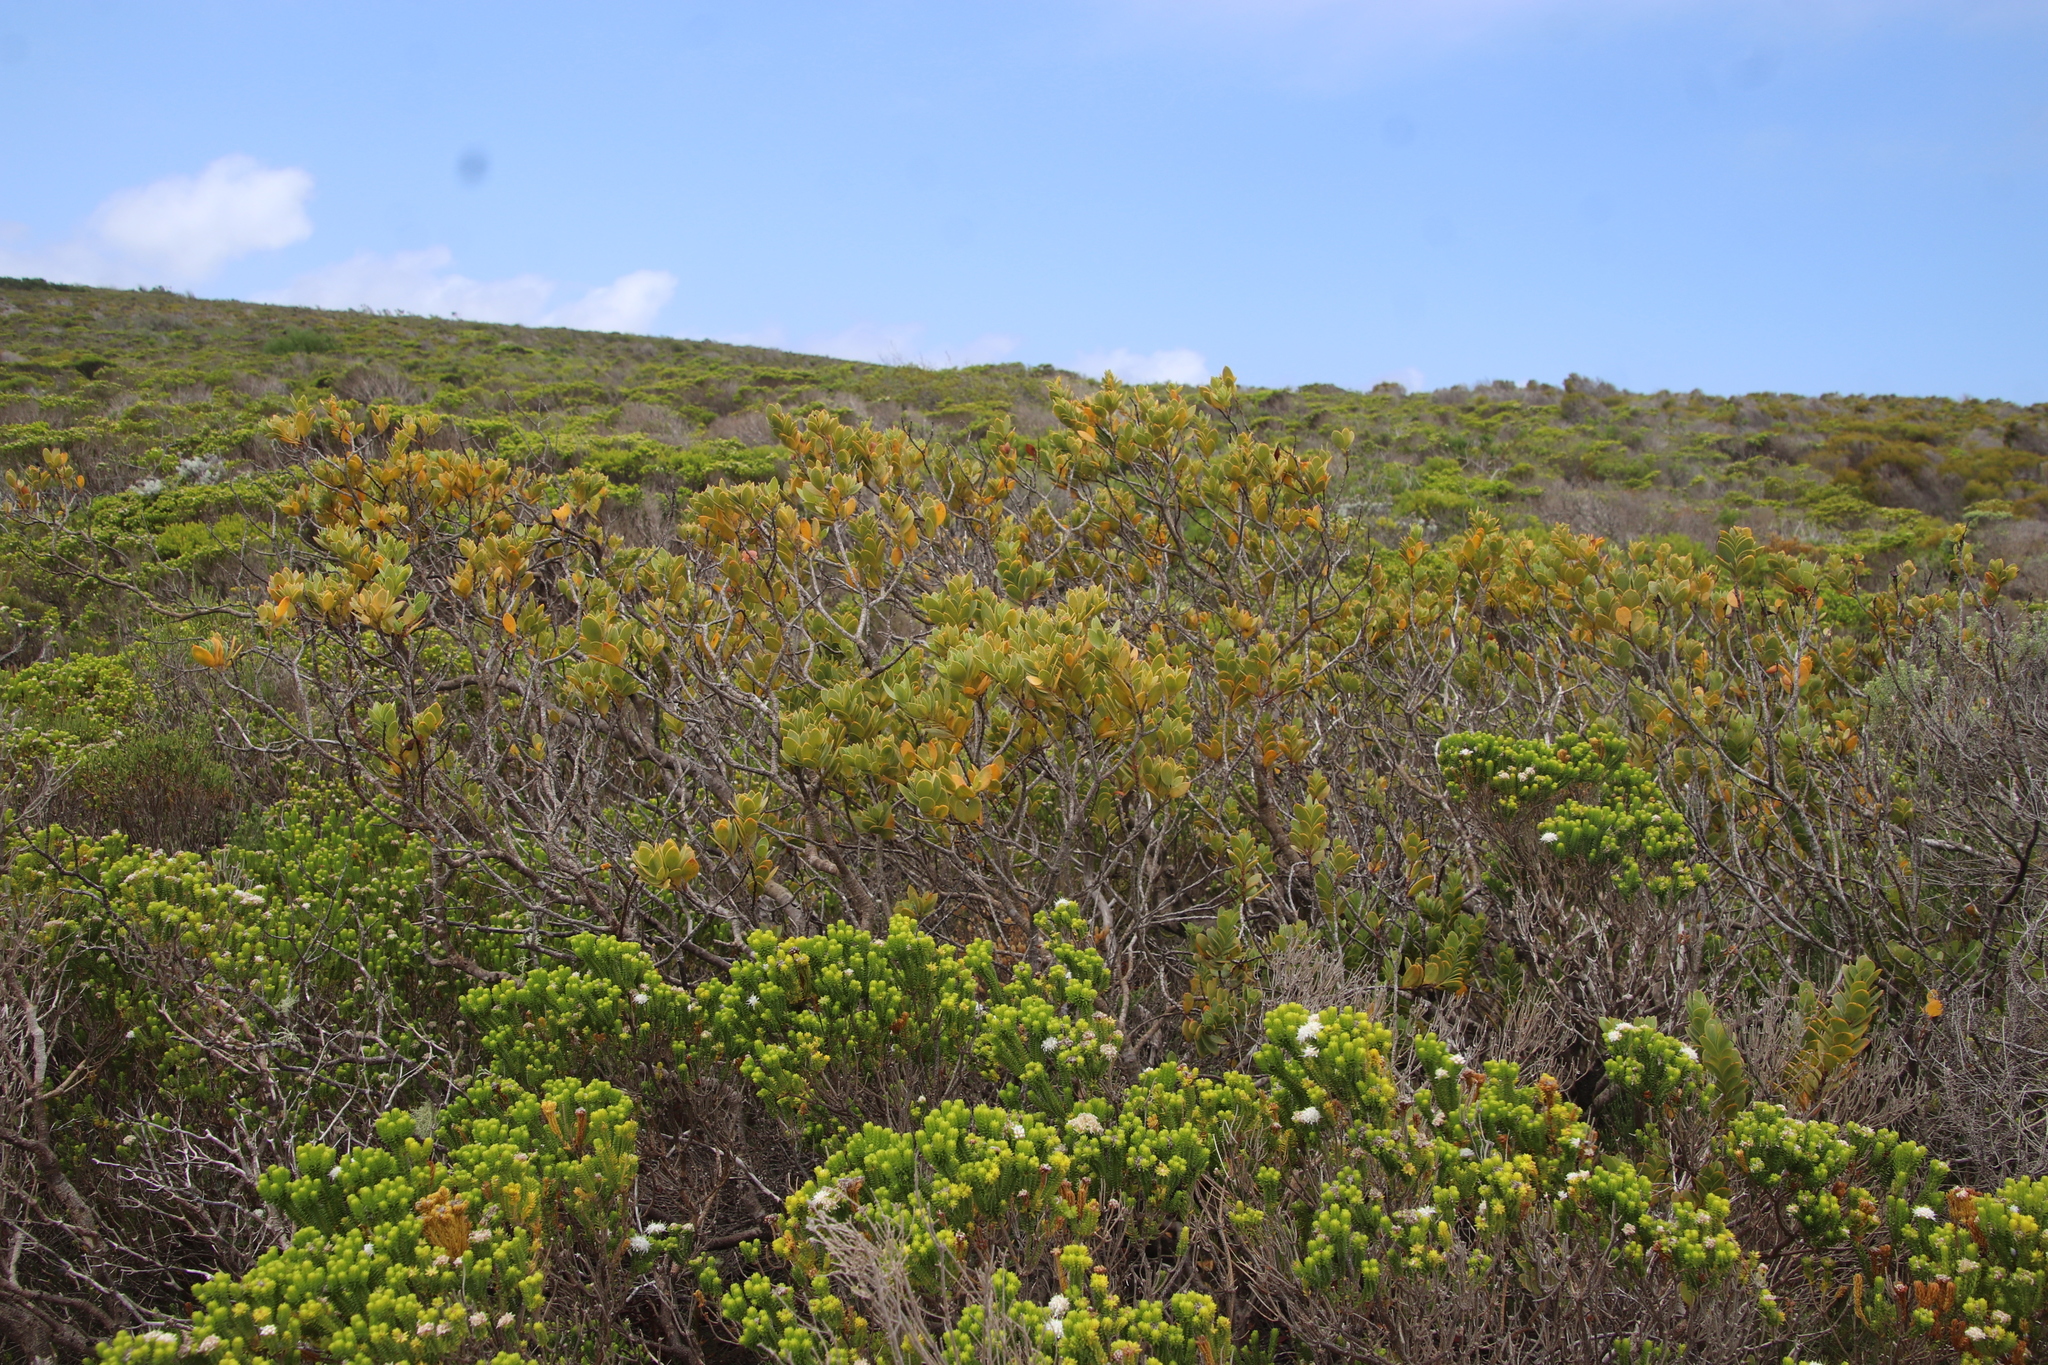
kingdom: Plantae
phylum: Tracheophyta
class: Magnoliopsida
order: Santalales
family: Santalaceae
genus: Osyris
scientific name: Osyris compressa
